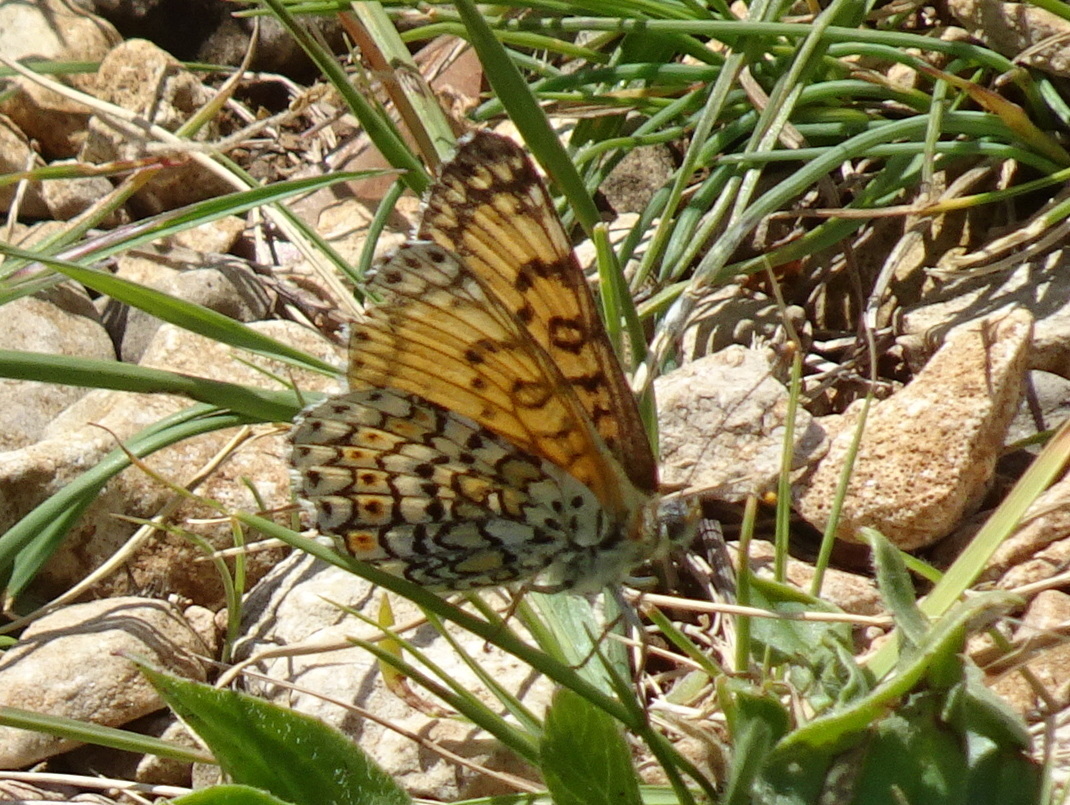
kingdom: Animalia
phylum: Arthropoda
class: Insecta
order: Lepidoptera
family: Nymphalidae
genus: Melitaea
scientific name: Melitaea cinxia
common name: Glanville fritillary
